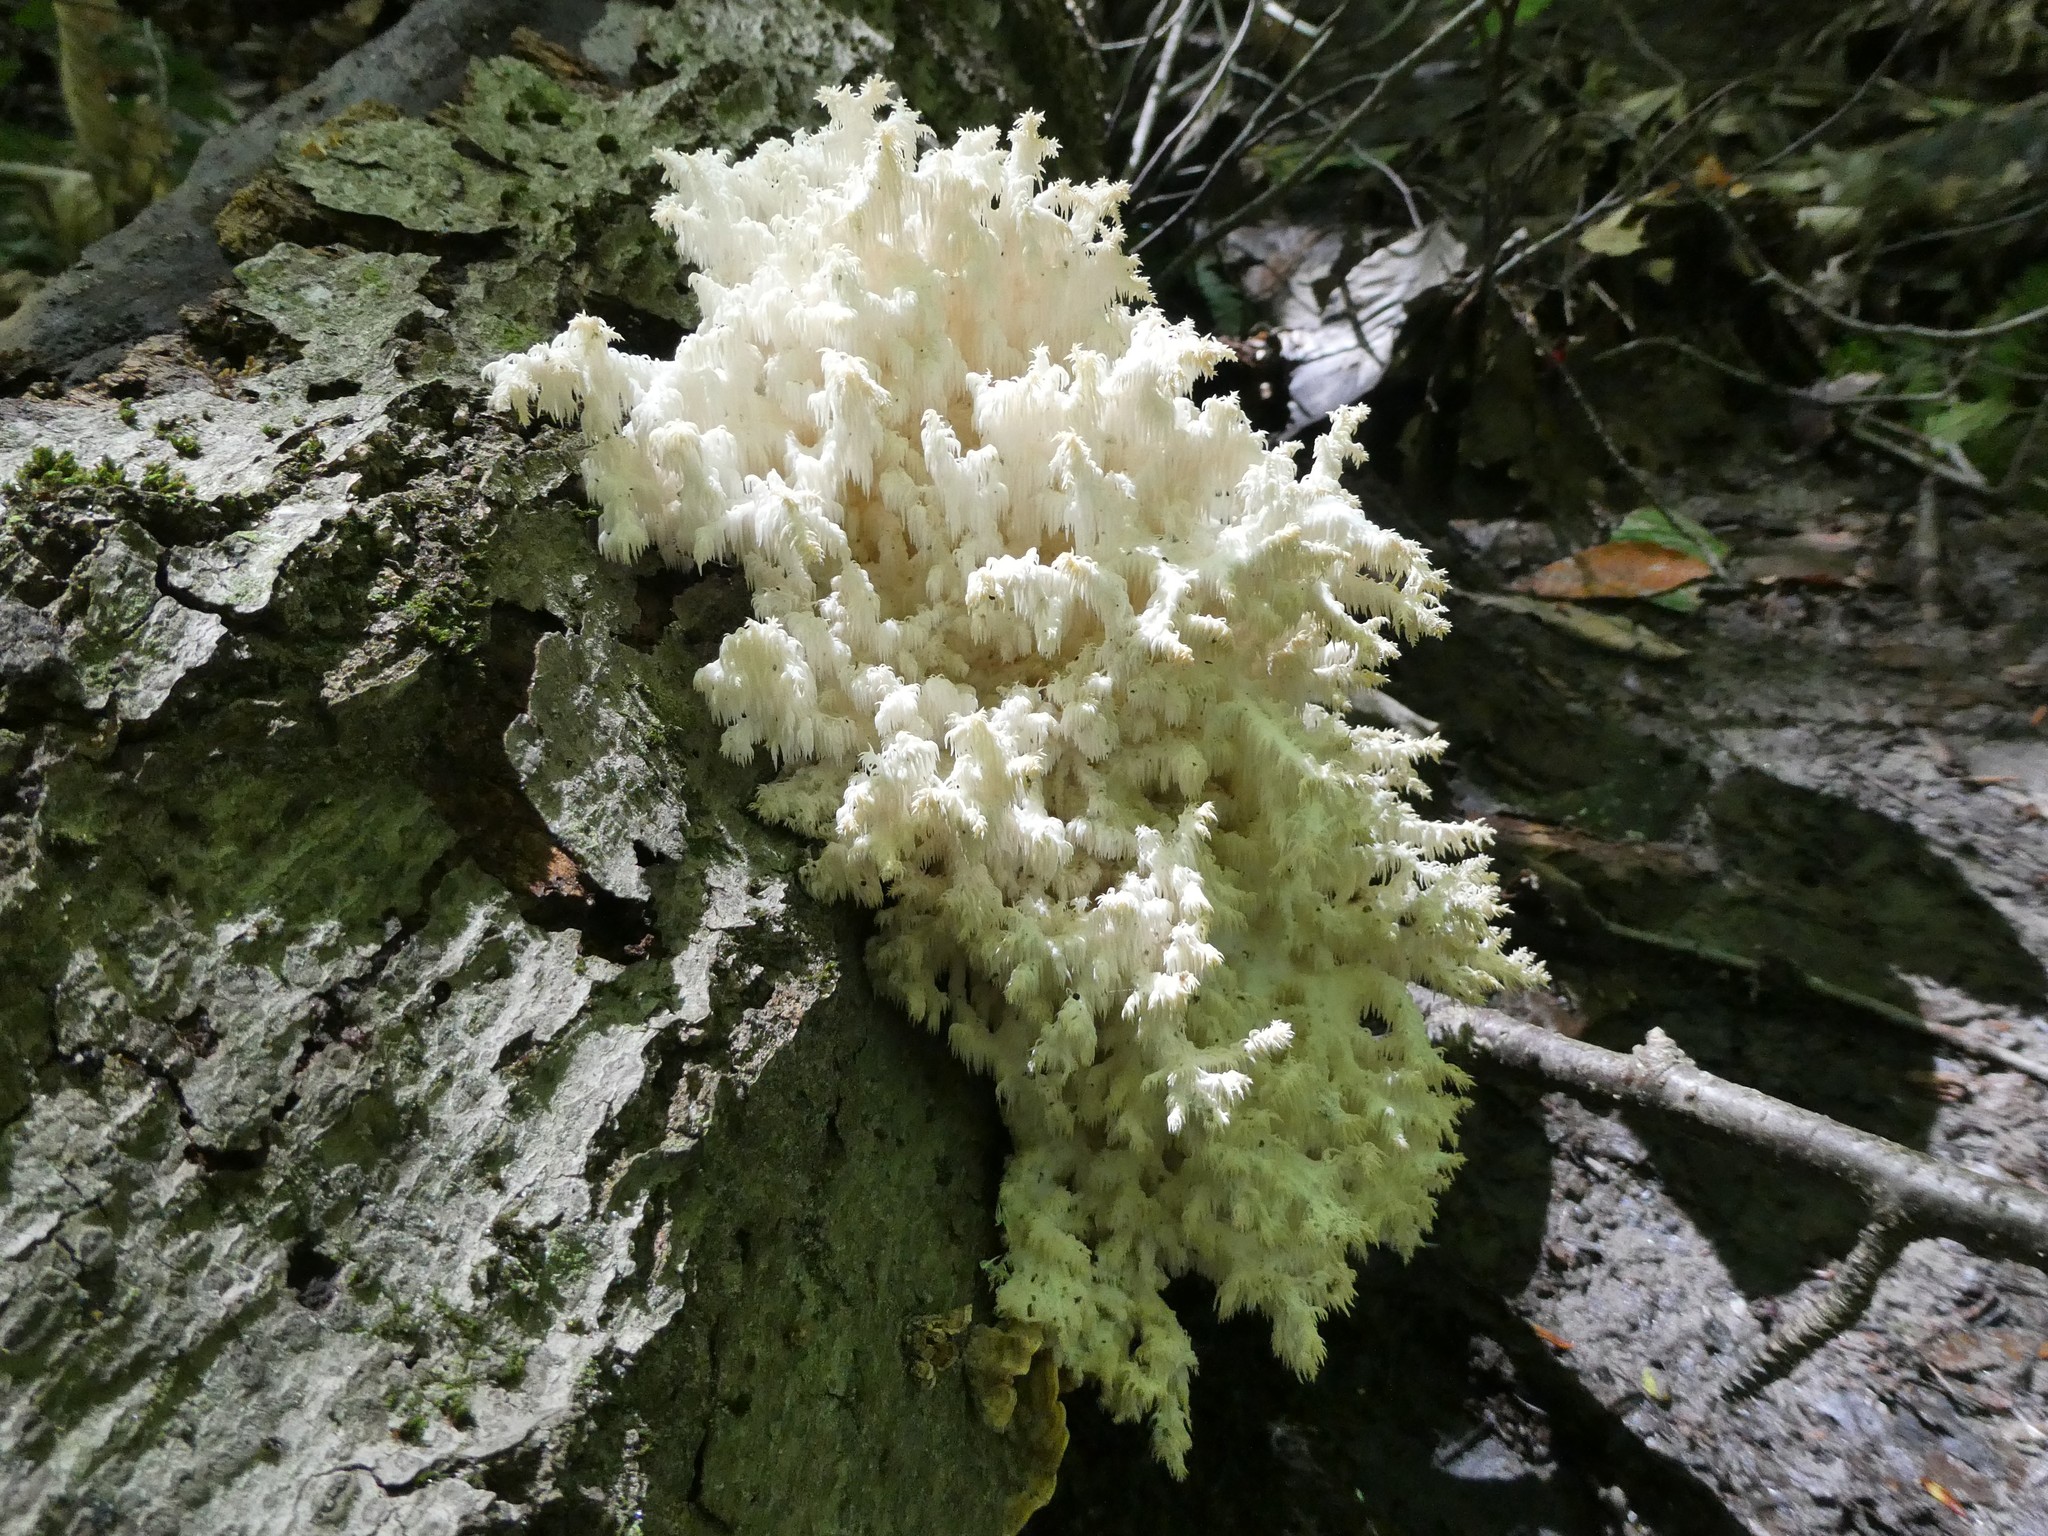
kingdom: Fungi
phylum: Basidiomycota
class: Agaricomycetes
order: Russulales
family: Hericiaceae
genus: Hericium
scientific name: Hericium coralloides
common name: Coral tooth
